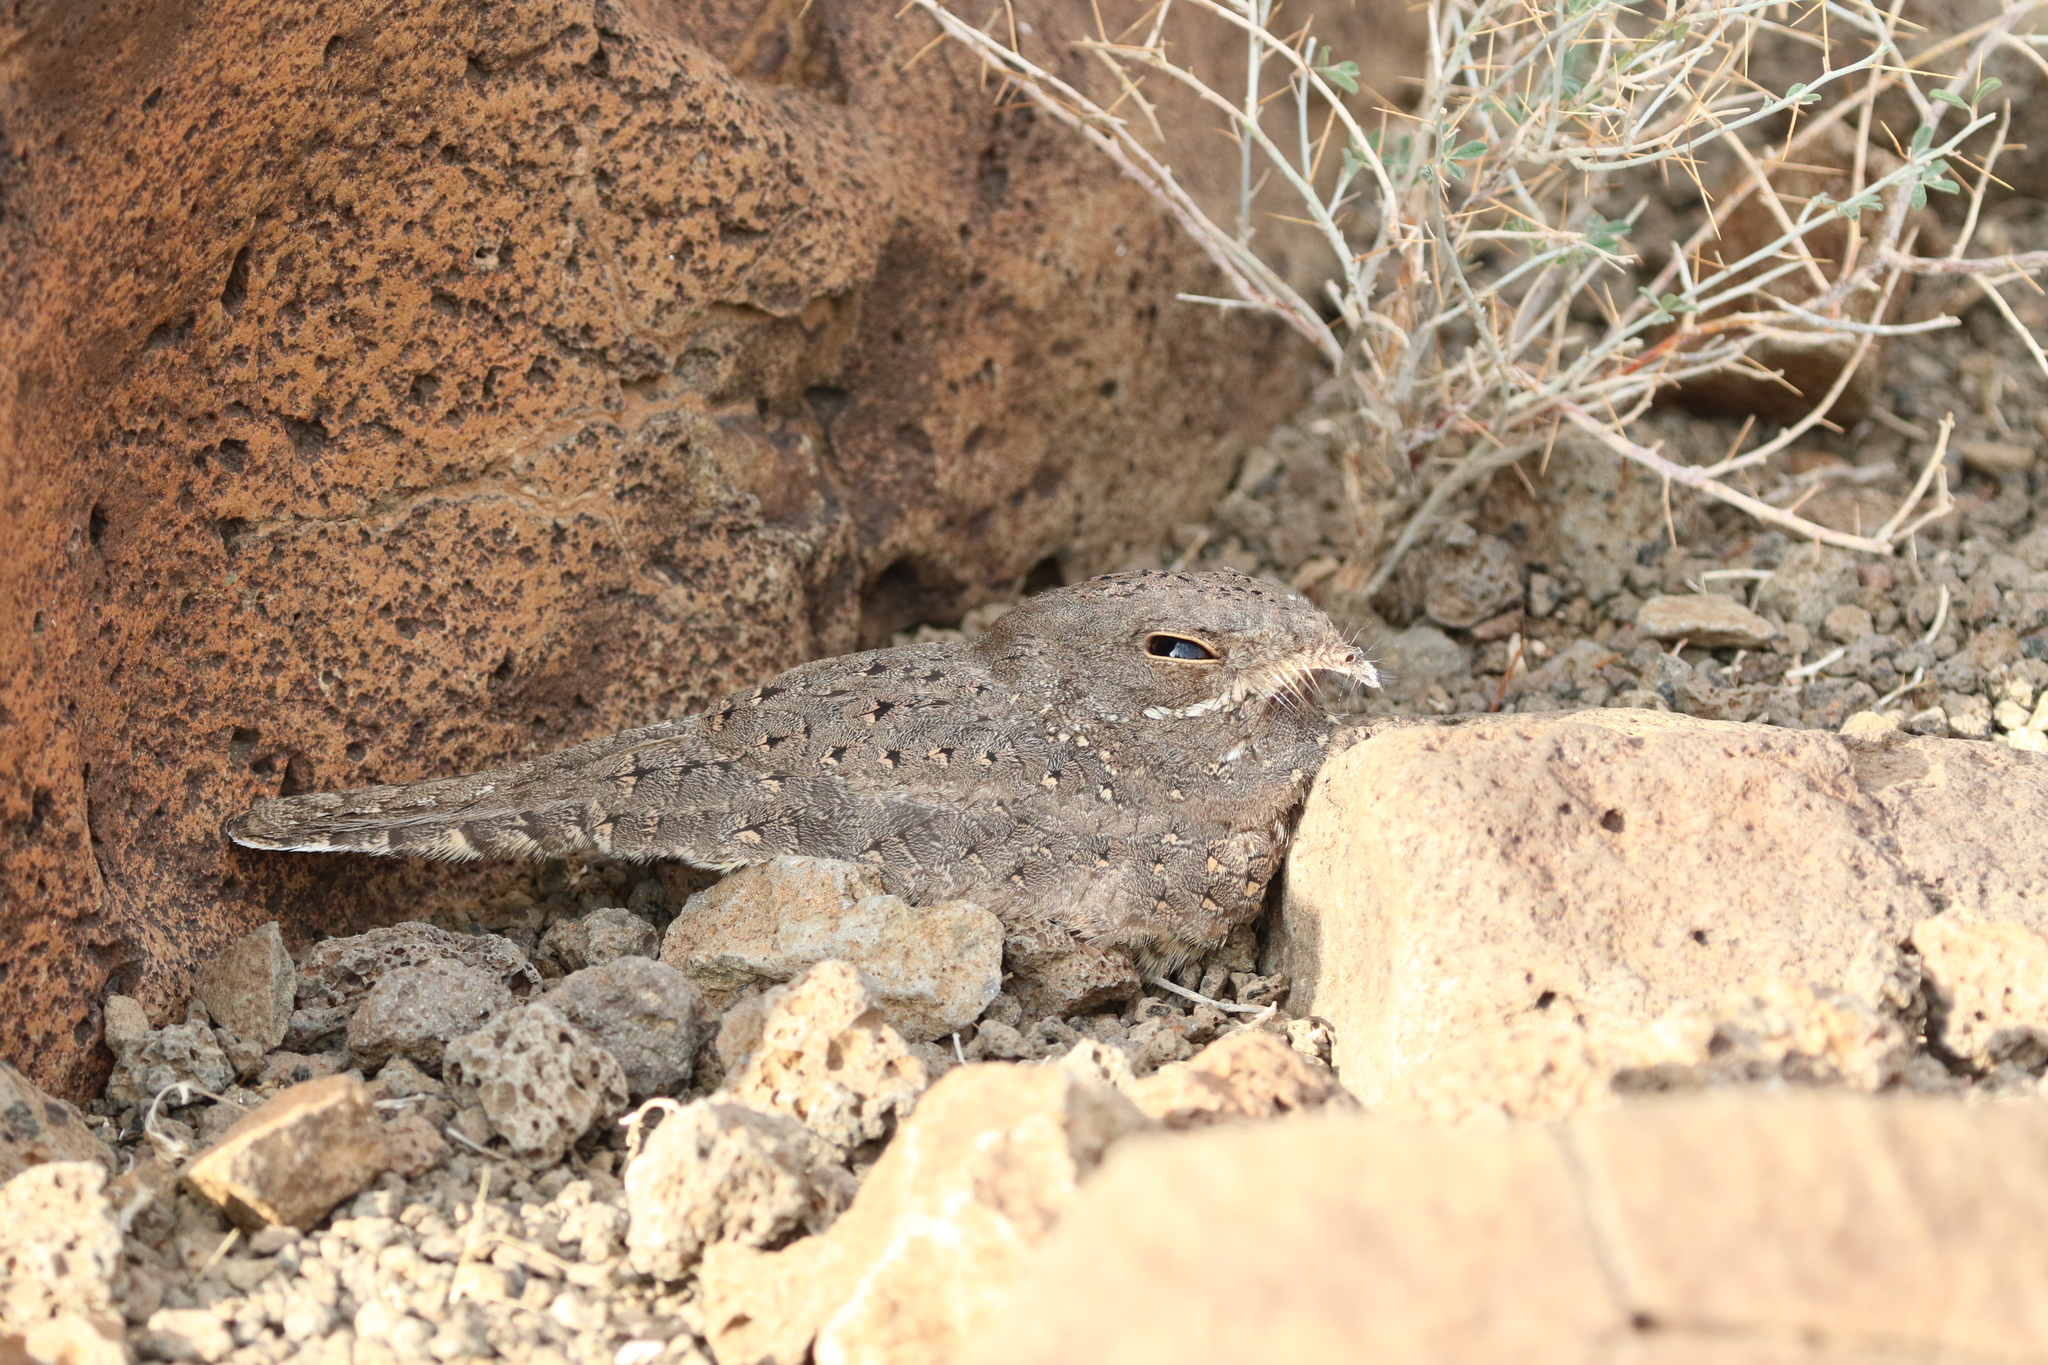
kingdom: Animalia
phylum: Chordata
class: Aves
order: Caprimulgiformes
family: Caprimulgidae
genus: Caprimulgus
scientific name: Caprimulgus stellatus
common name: Star-spotted nightjar
